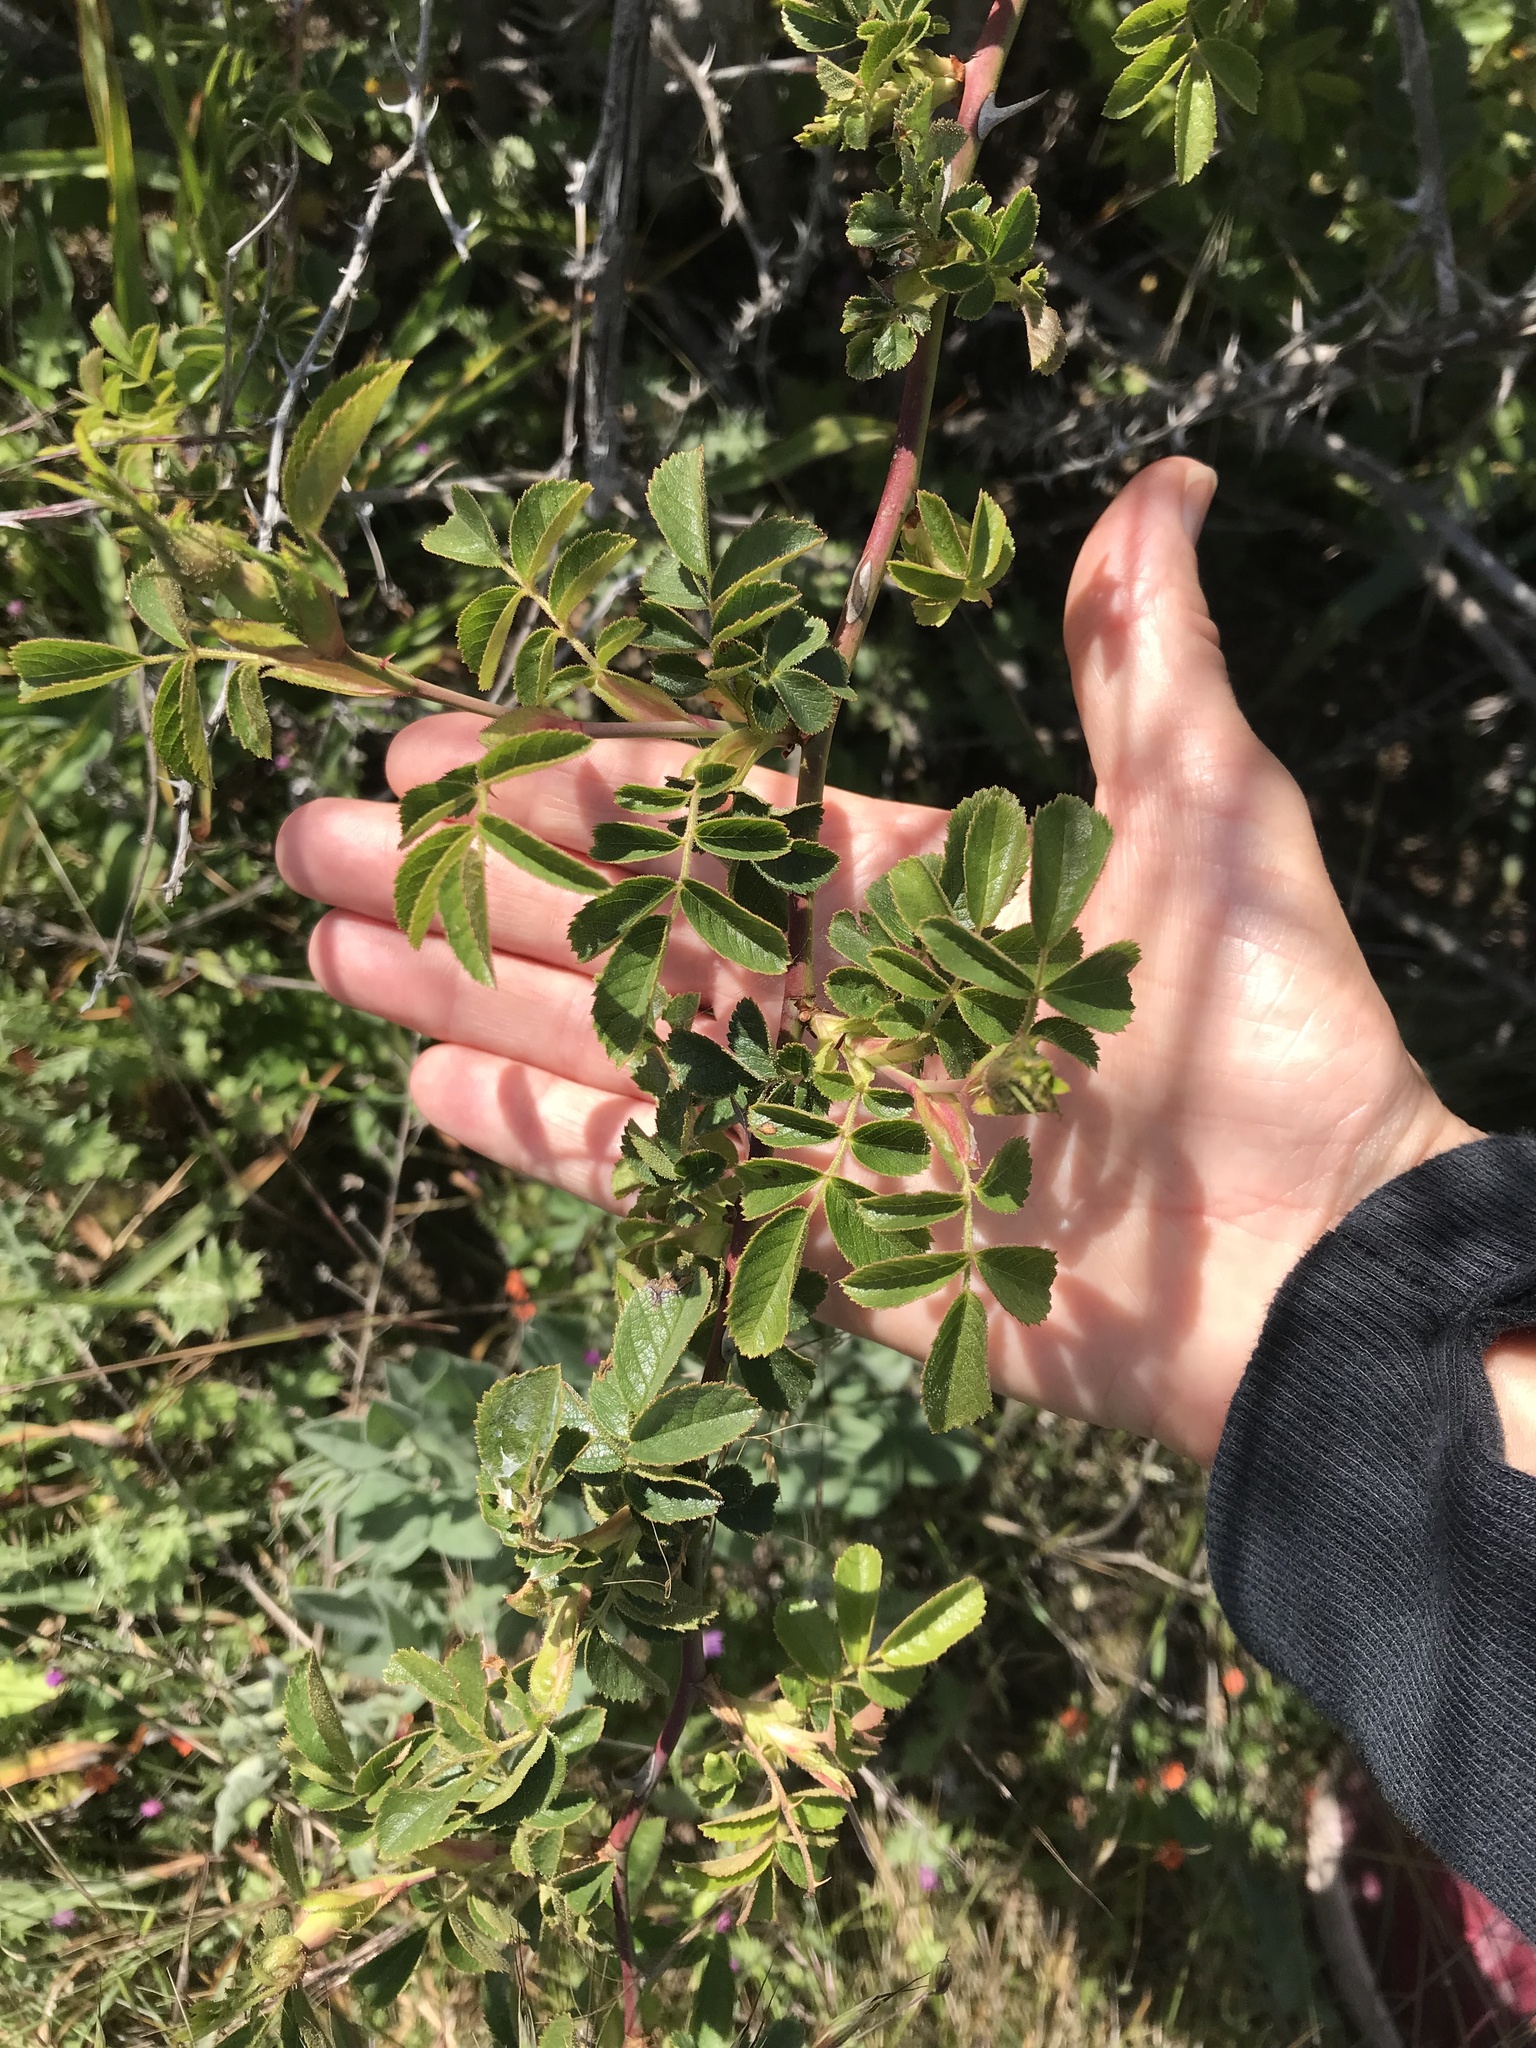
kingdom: Plantae
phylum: Tracheophyta
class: Magnoliopsida
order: Rosales
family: Rosaceae
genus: Rosa
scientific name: Rosa rubiginosa
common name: Sweet-briar
